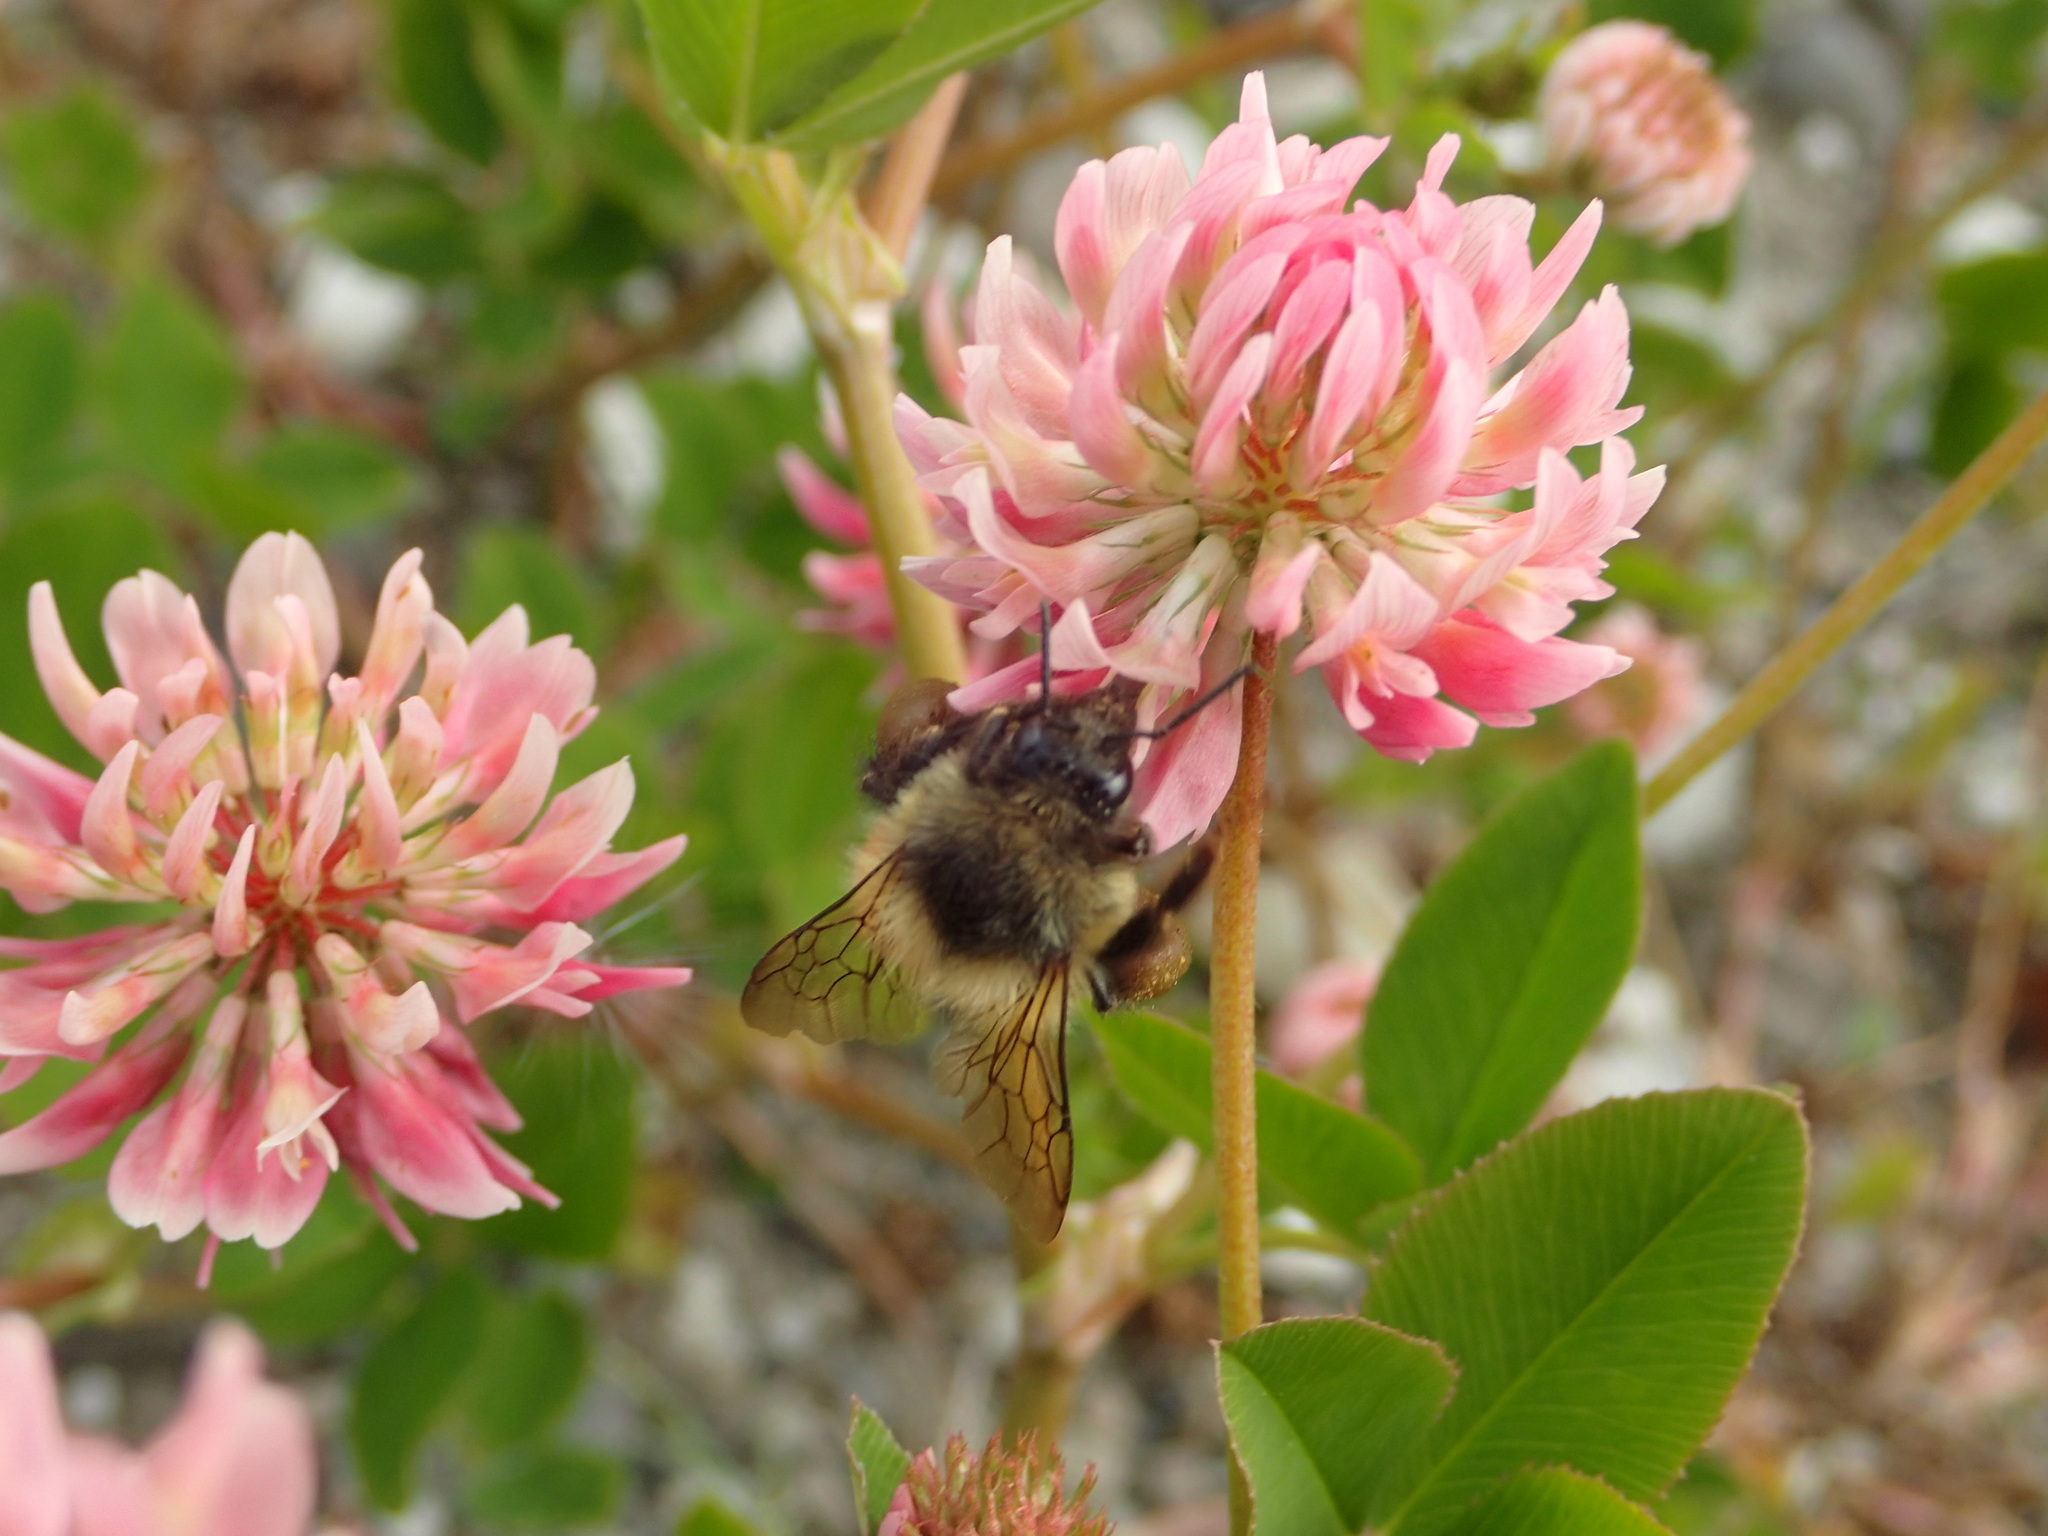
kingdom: Plantae
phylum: Tracheophyta
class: Magnoliopsida
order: Fabales
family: Fabaceae
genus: Trifolium
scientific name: Trifolium hybridum
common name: Alsike clover
